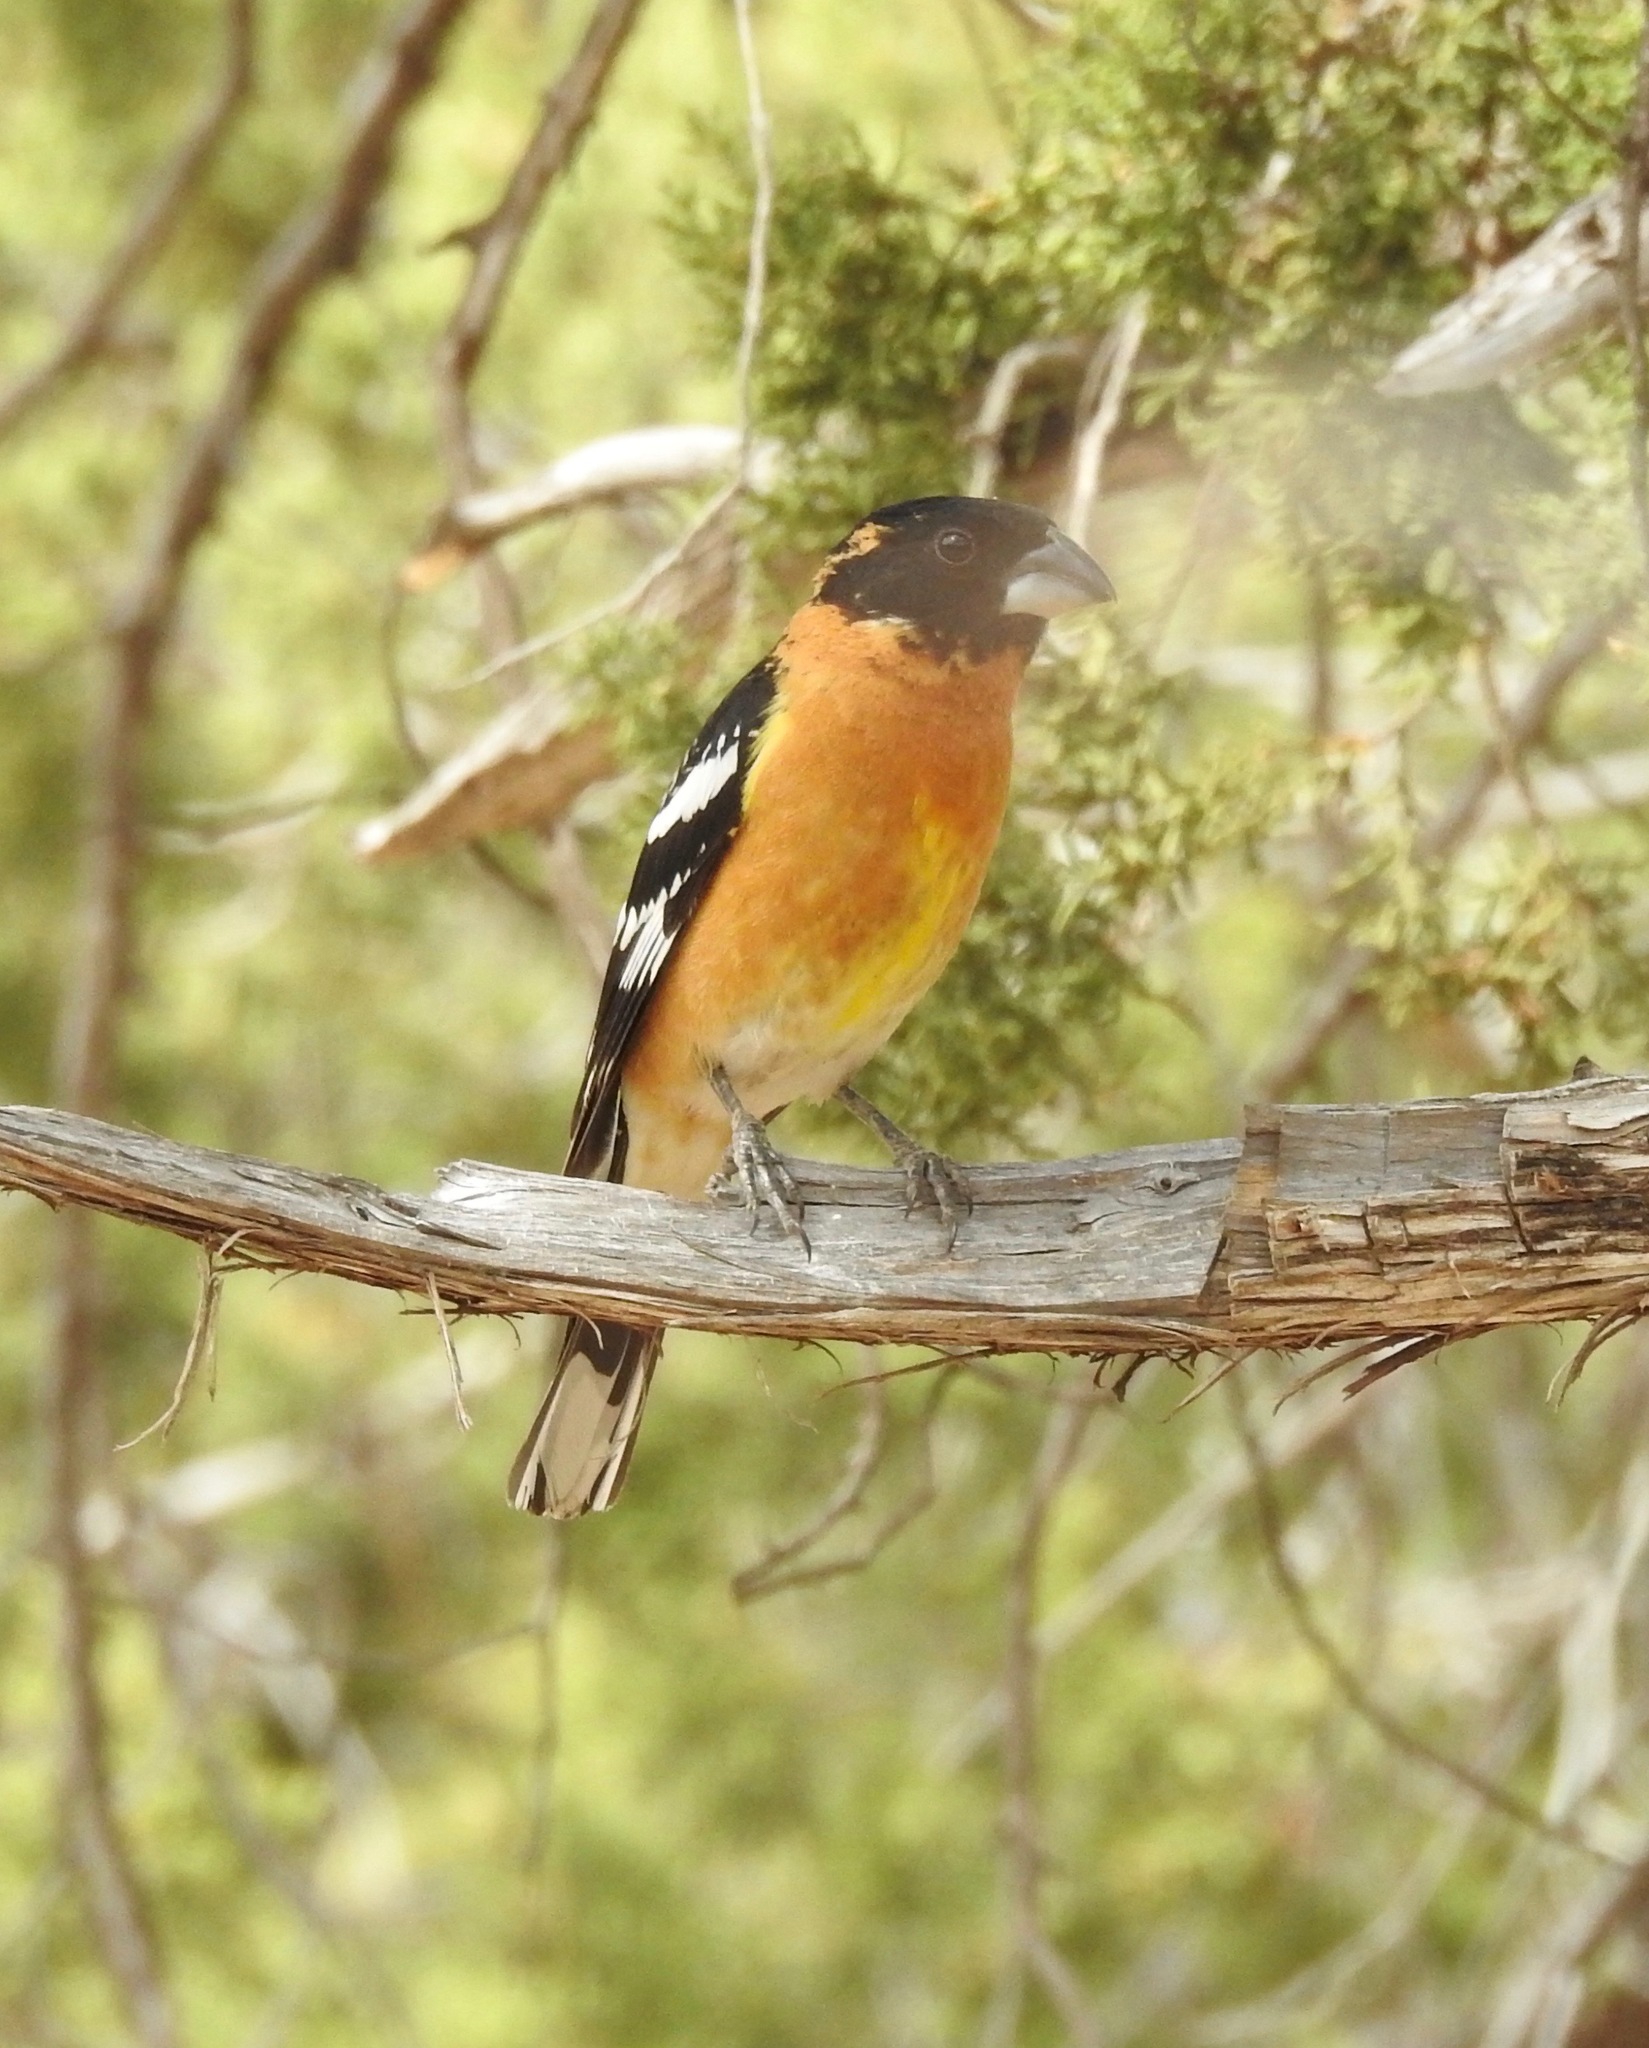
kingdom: Animalia
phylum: Chordata
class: Aves
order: Passeriformes
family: Cardinalidae
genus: Pheucticus
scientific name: Pheucticus melanocephalus
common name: Black-headed grosbeak
